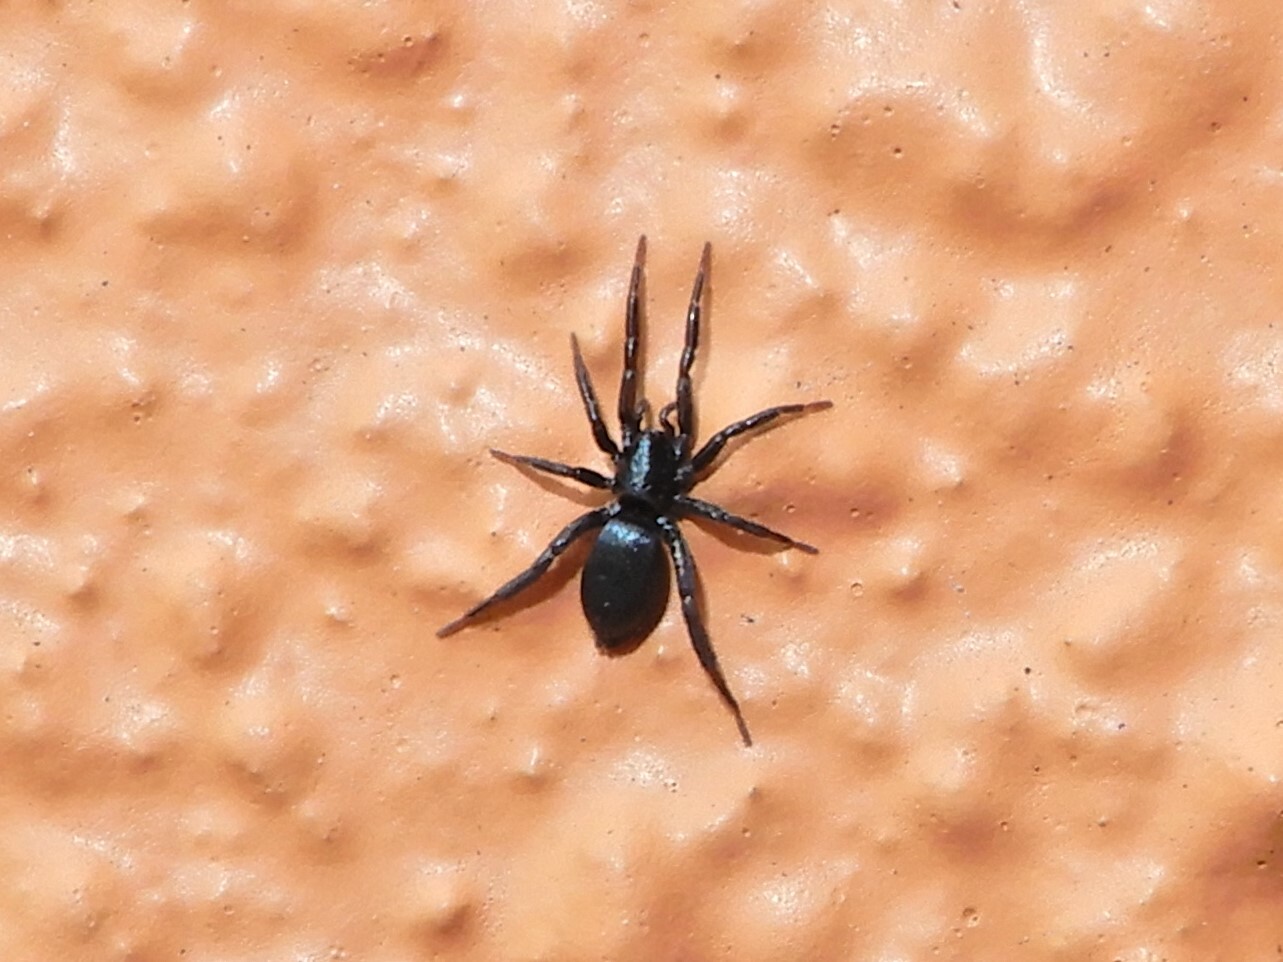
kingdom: Animalia
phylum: Arthropoda
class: Arachnida
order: Araneae
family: Gnaphosidae
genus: Hypodrassodes
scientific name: Hypodrassodes maoricus
